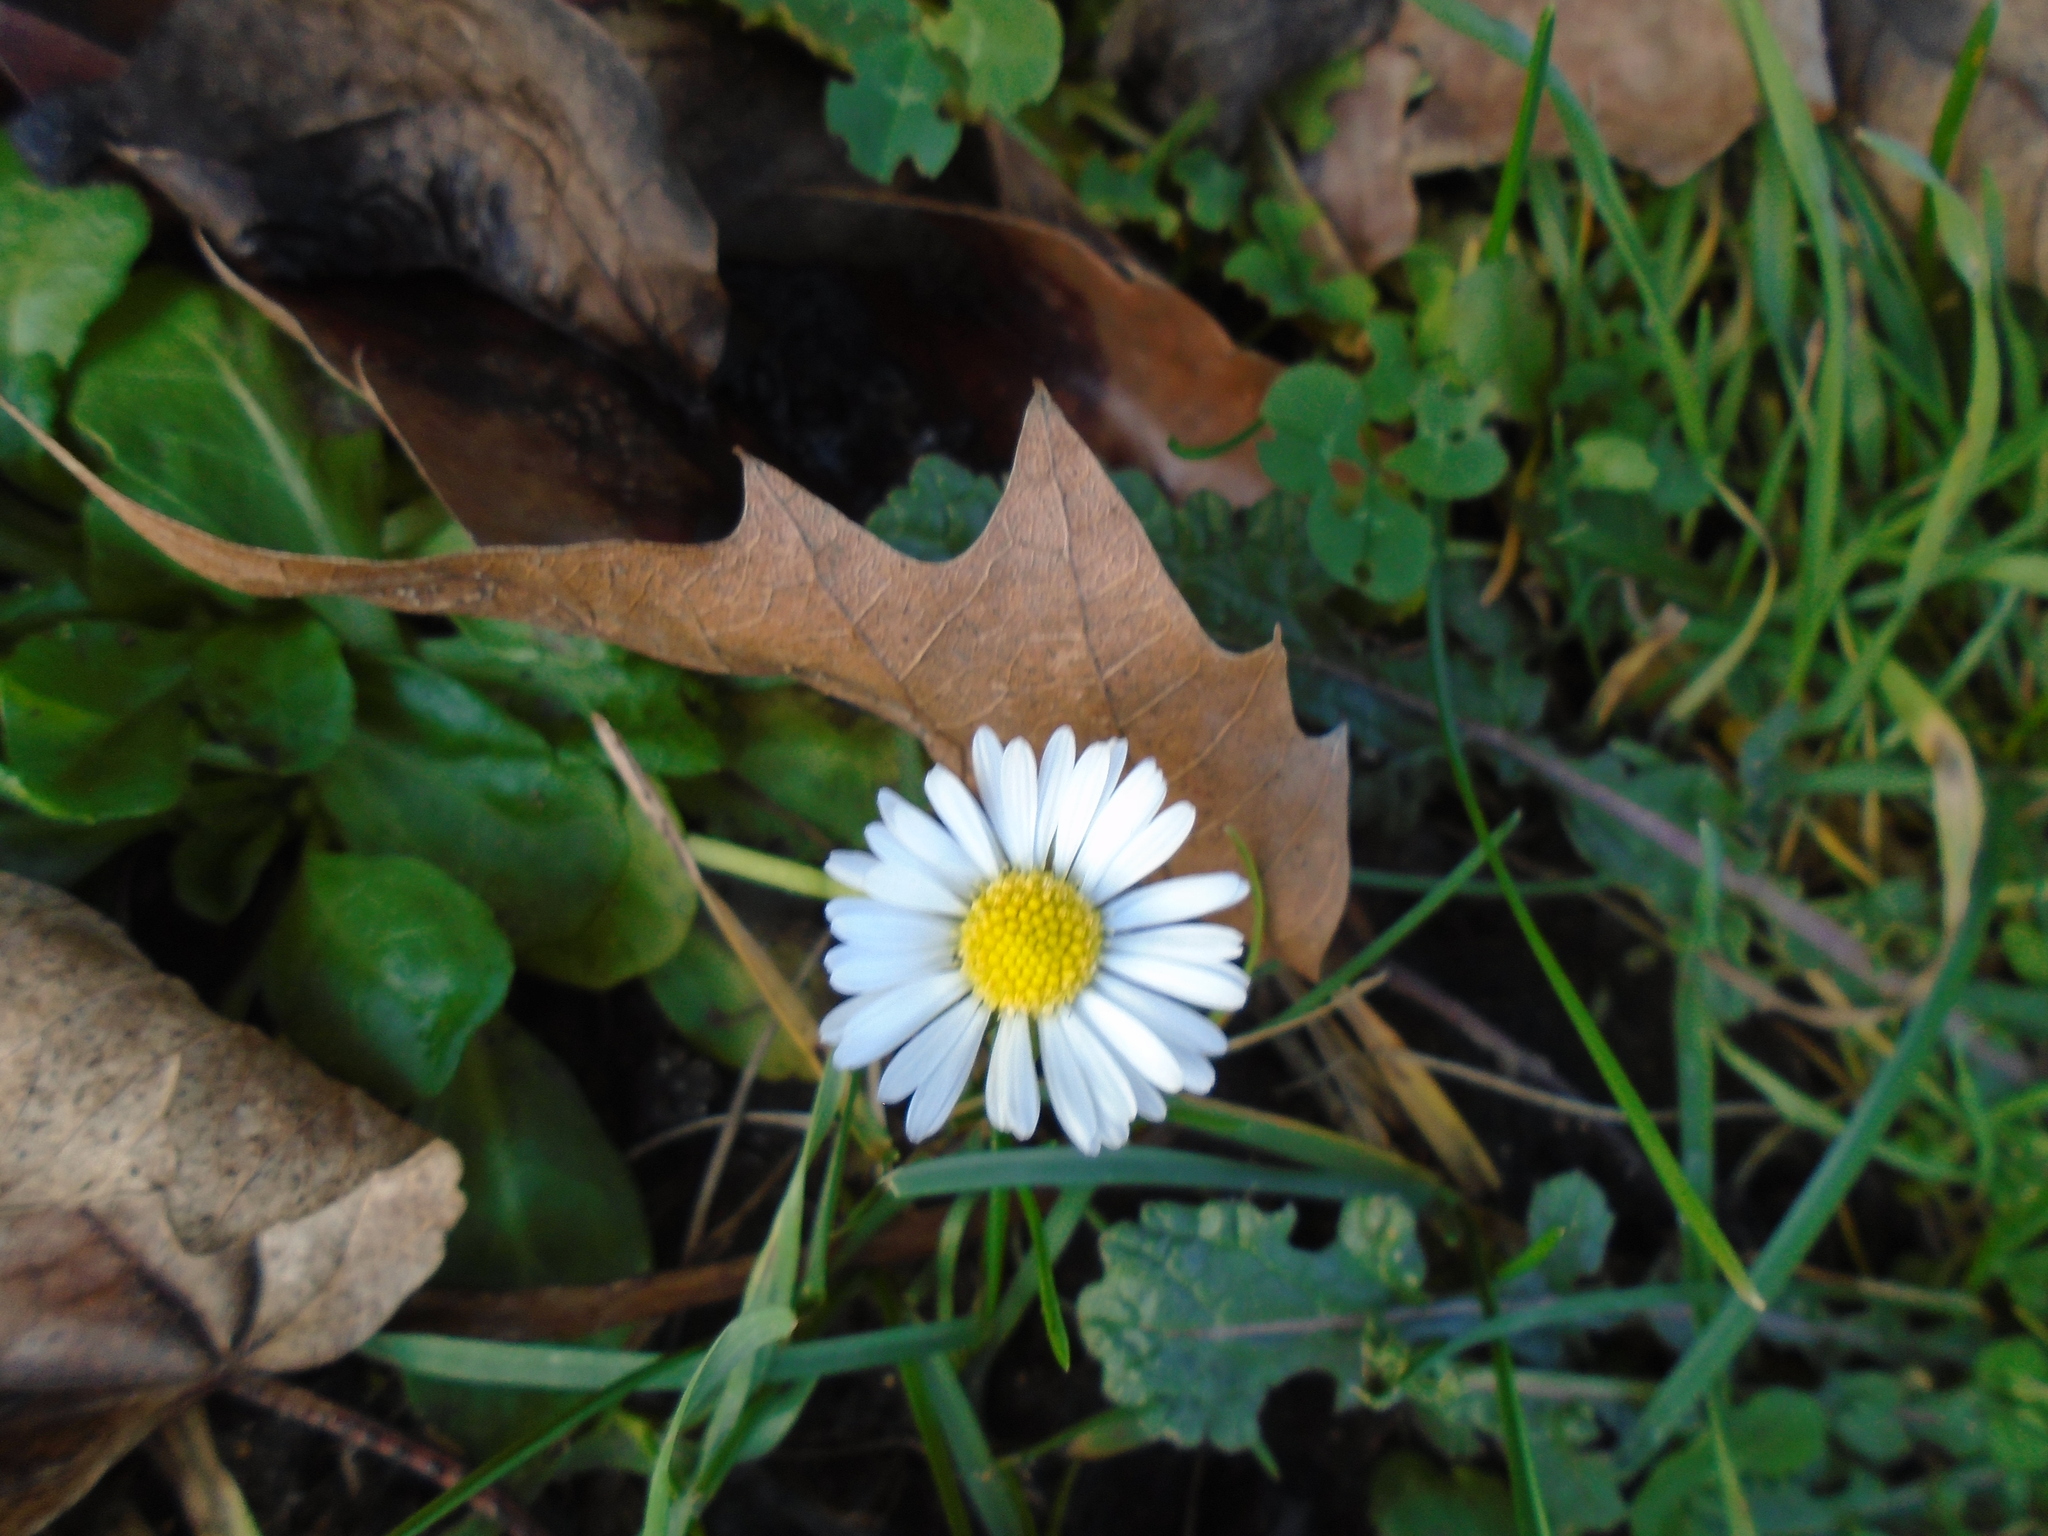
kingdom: Plantae
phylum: Tracheophyta
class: Magnoliopsida
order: Asterales
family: Asteraceae
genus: Bellis
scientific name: Bellis perennis
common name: Lawndaisy
